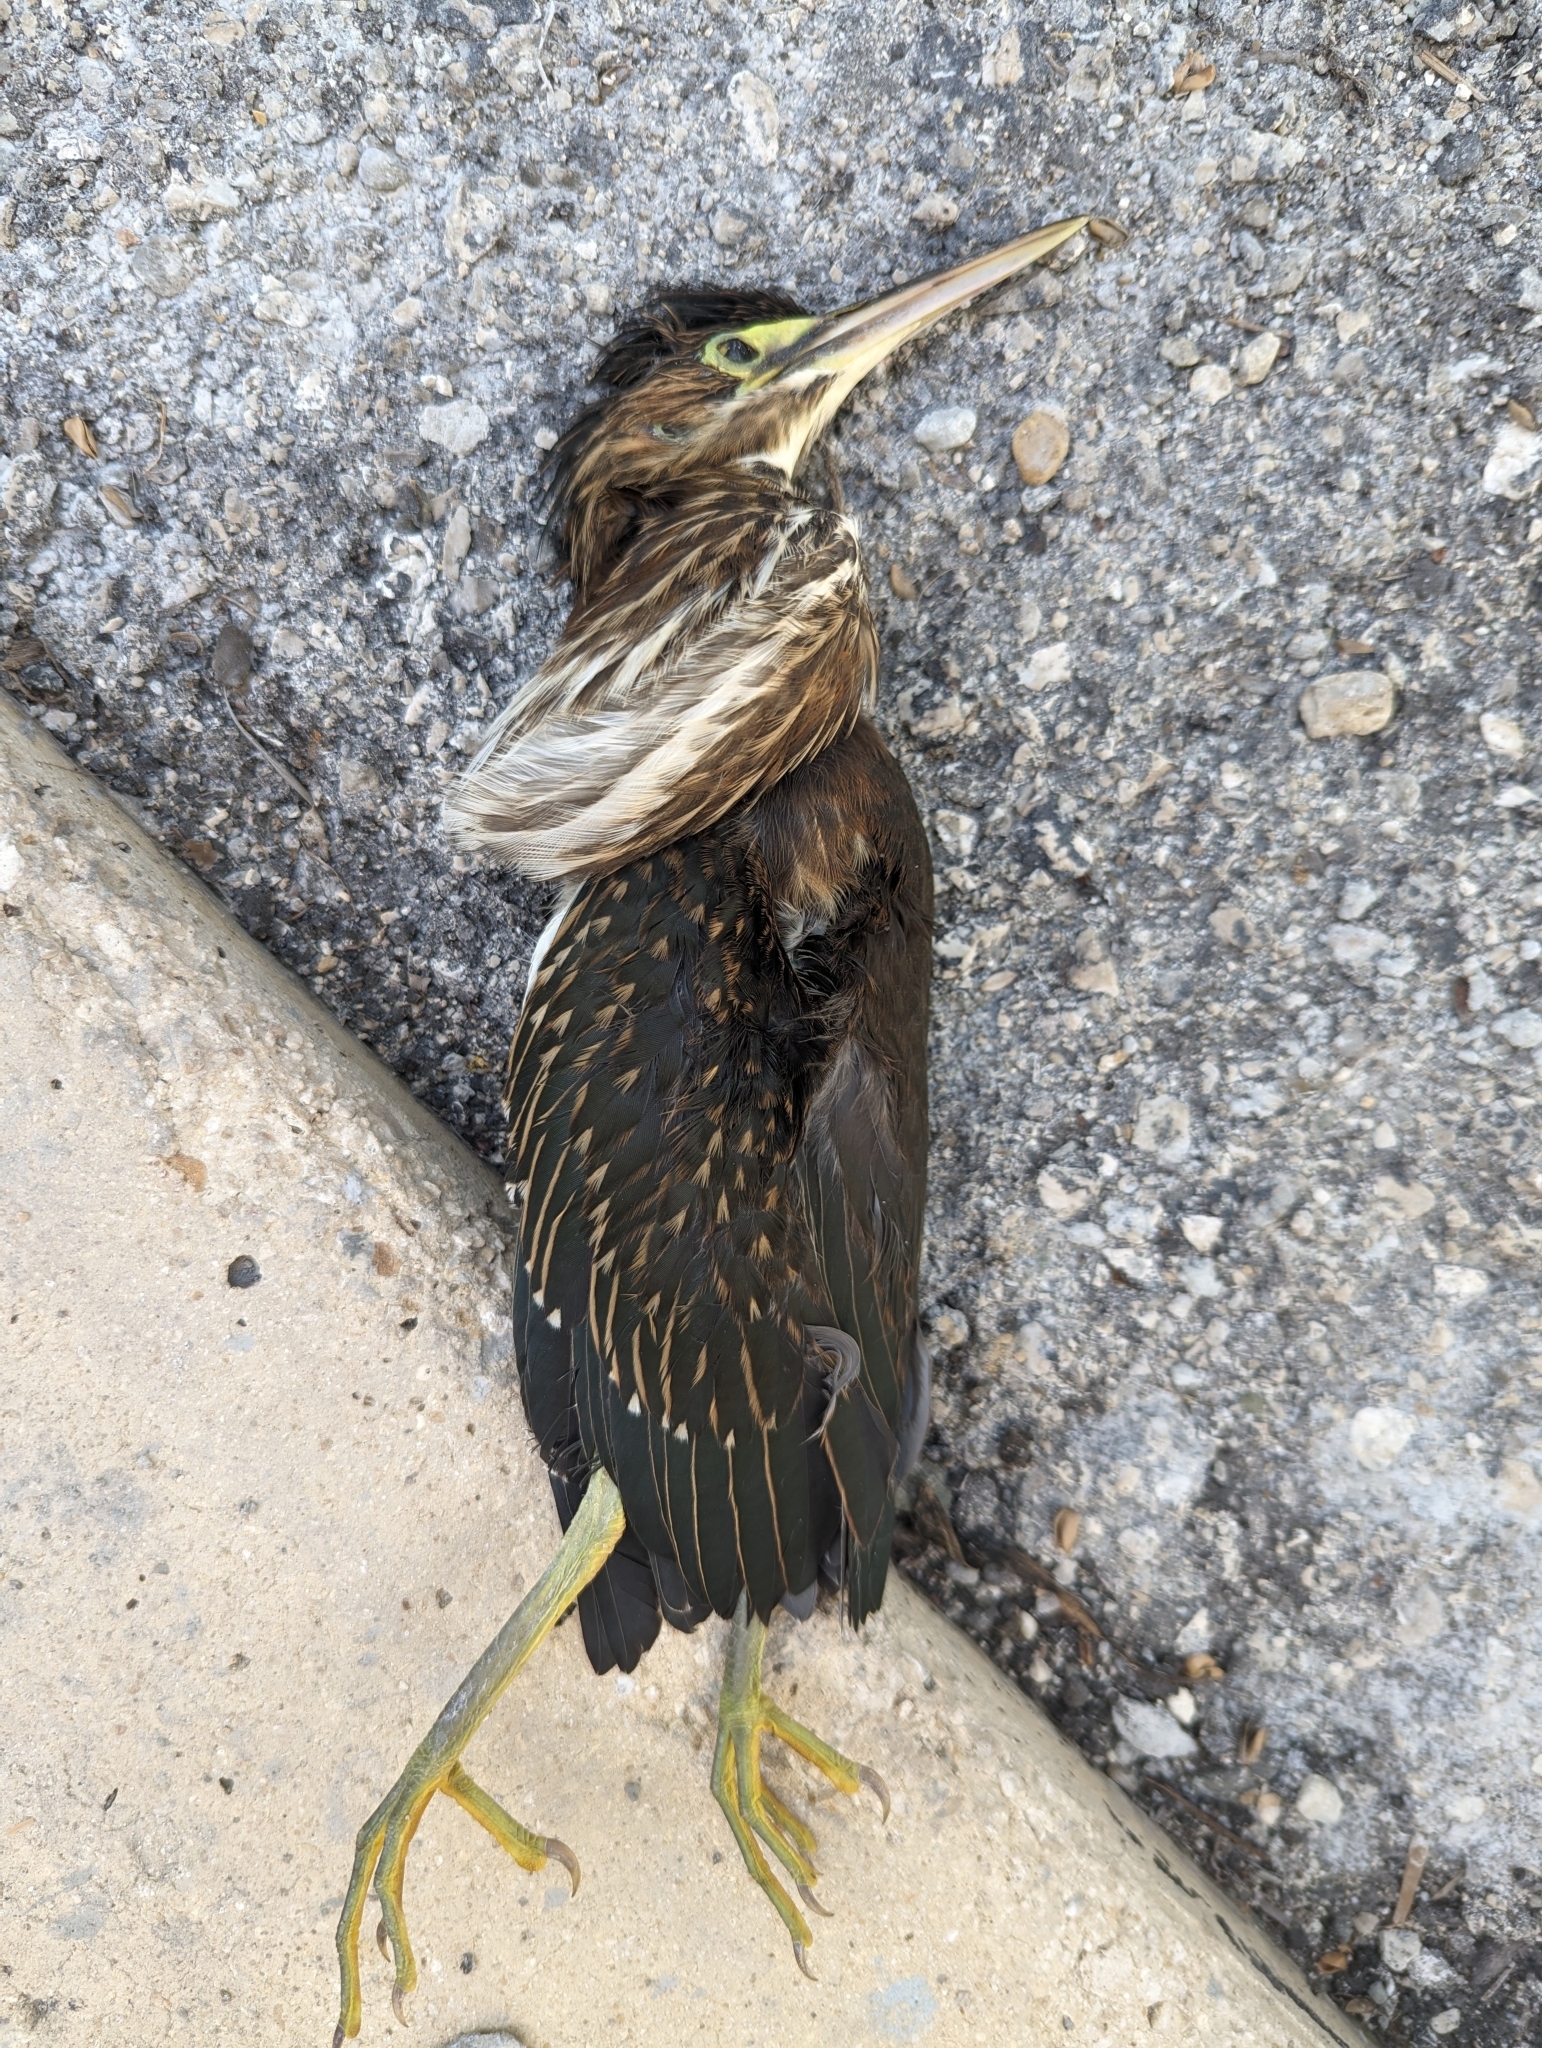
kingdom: Animalia
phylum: Chordata
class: Aves
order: Pelecaniformes
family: Ardeidae
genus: Butorides
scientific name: Butorides virescens
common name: Green heron
